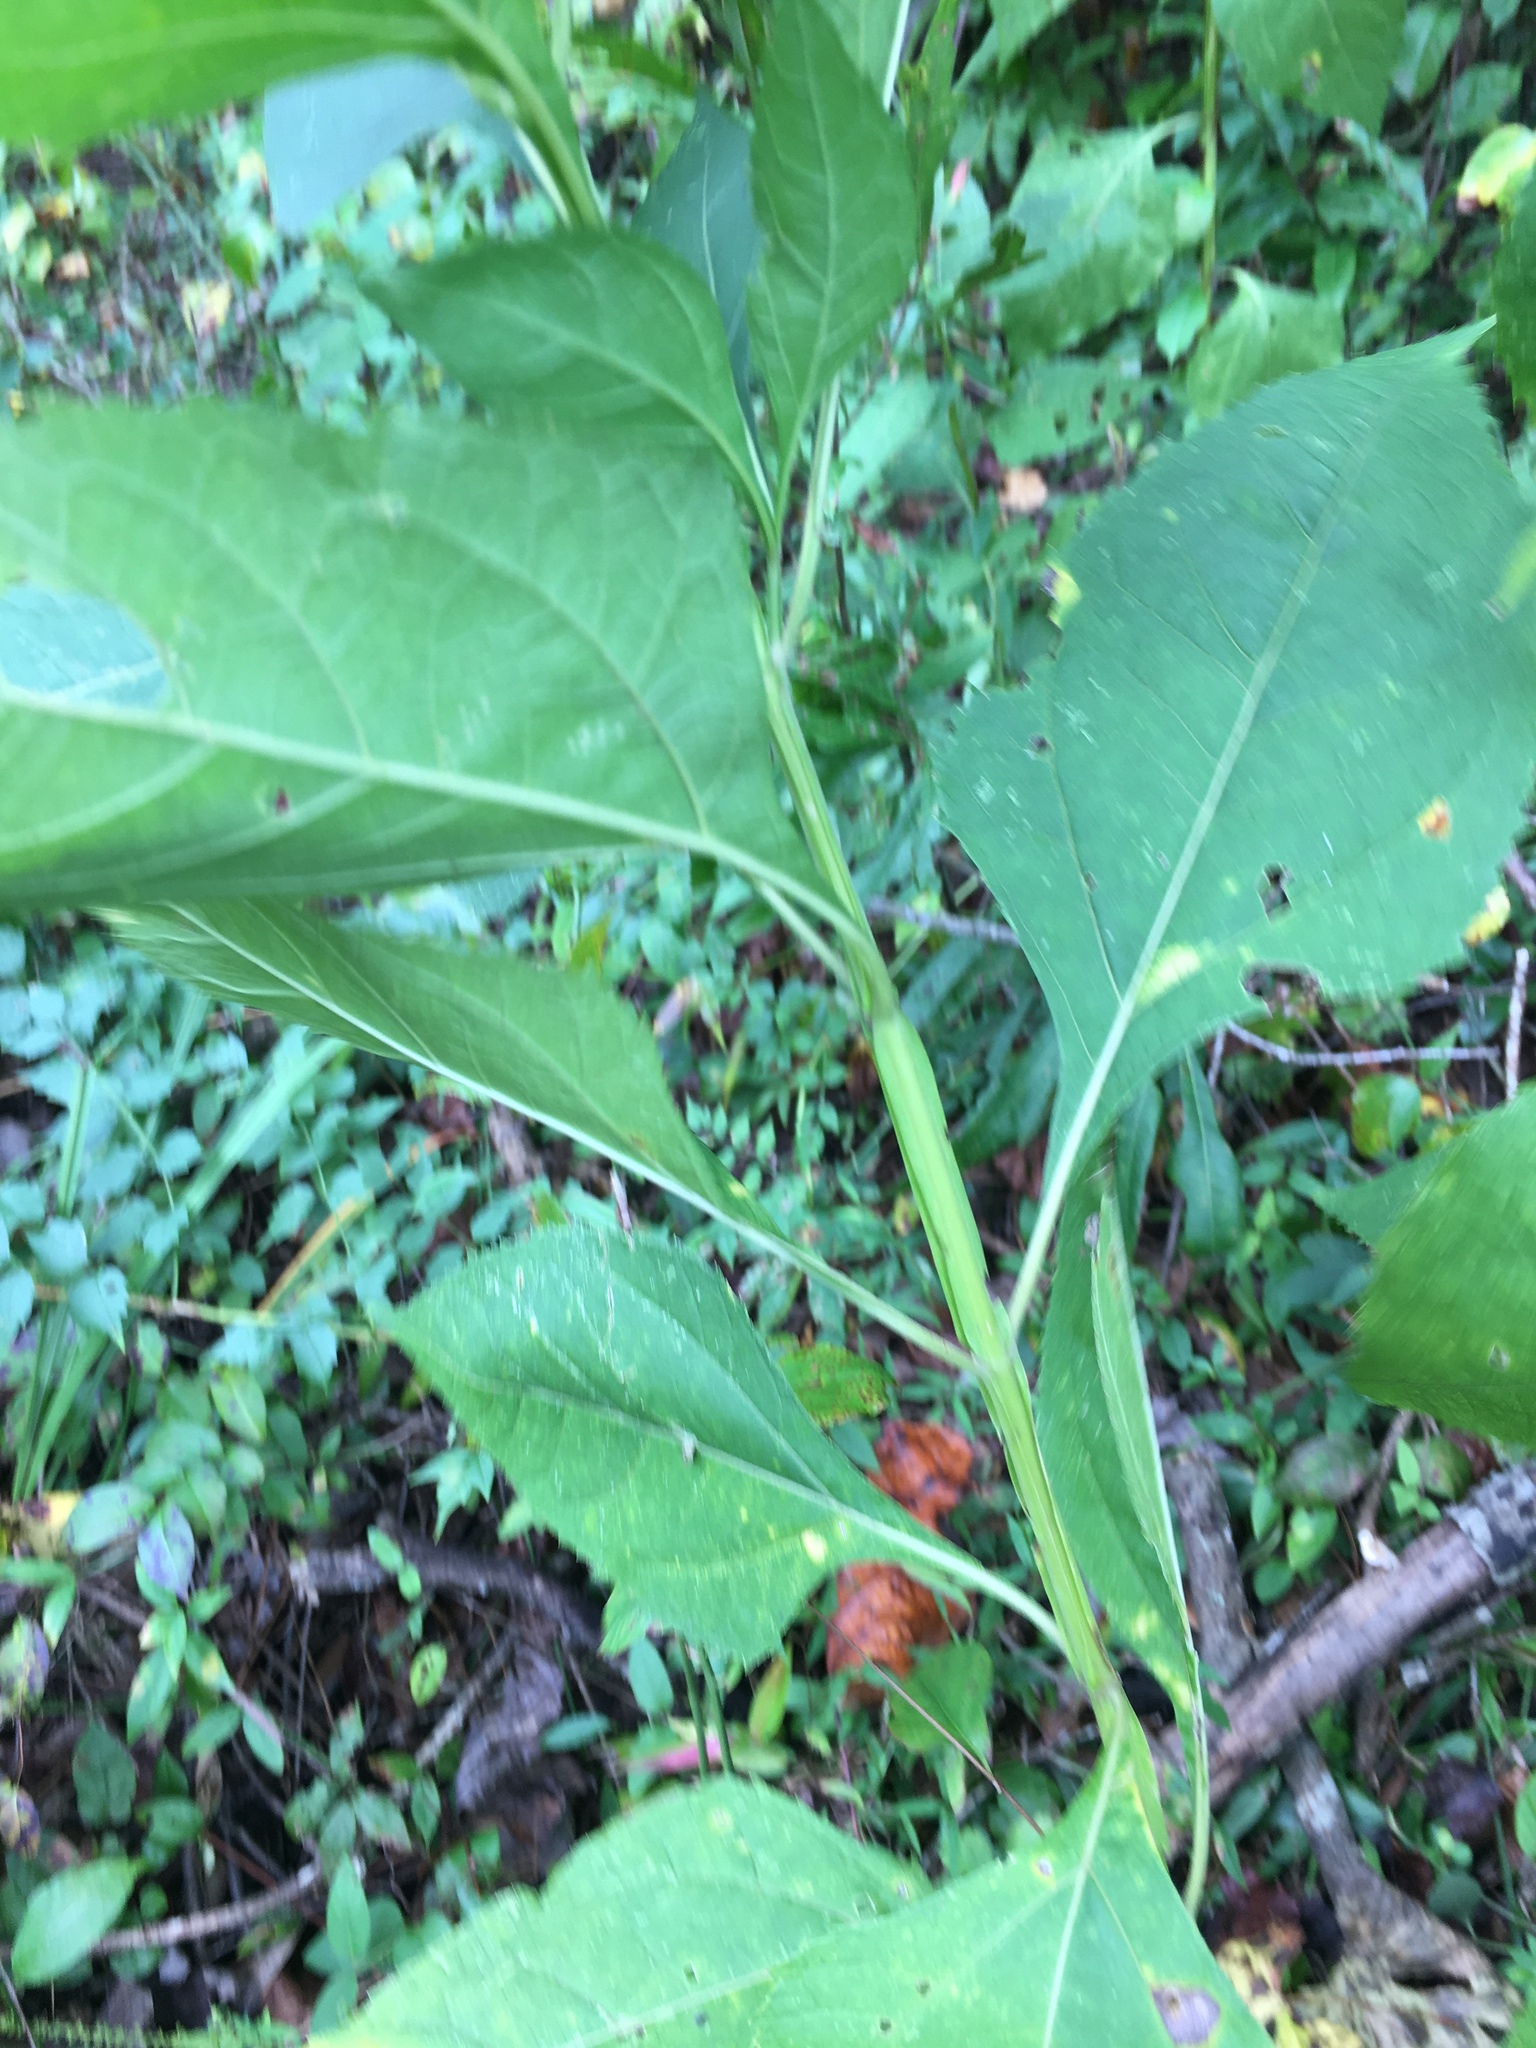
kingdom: Plantae
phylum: Tracheophyta
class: Magnoliopsida
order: Asterales
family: Asteraceae
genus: Verbesina
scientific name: Verbesina occidentalis
